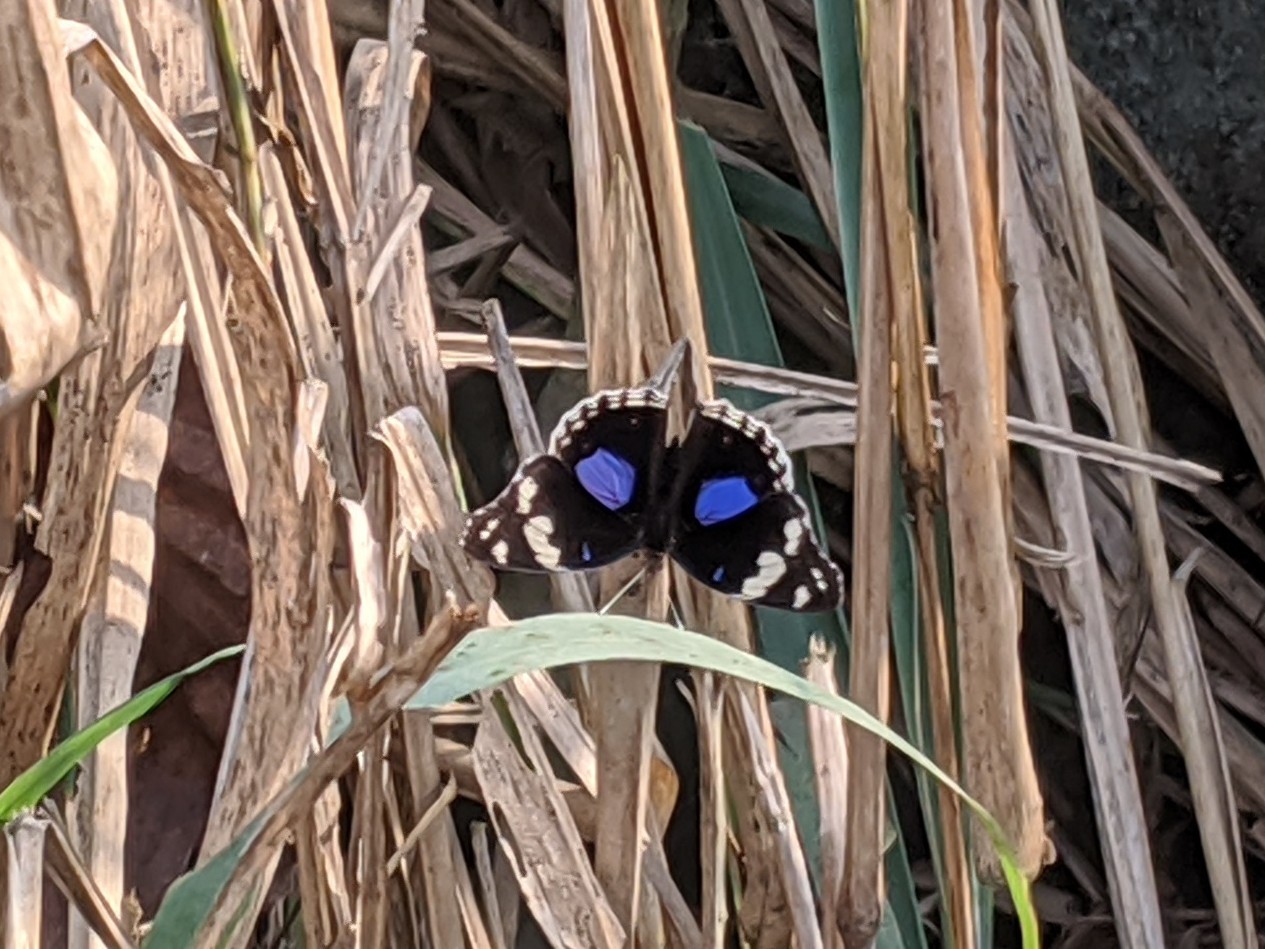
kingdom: Animalia
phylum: Arthropoda
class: Insecta
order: Lepidoptera
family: Nymphalidae
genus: Junonia
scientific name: Junonia oenone
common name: Dark blue pansy
